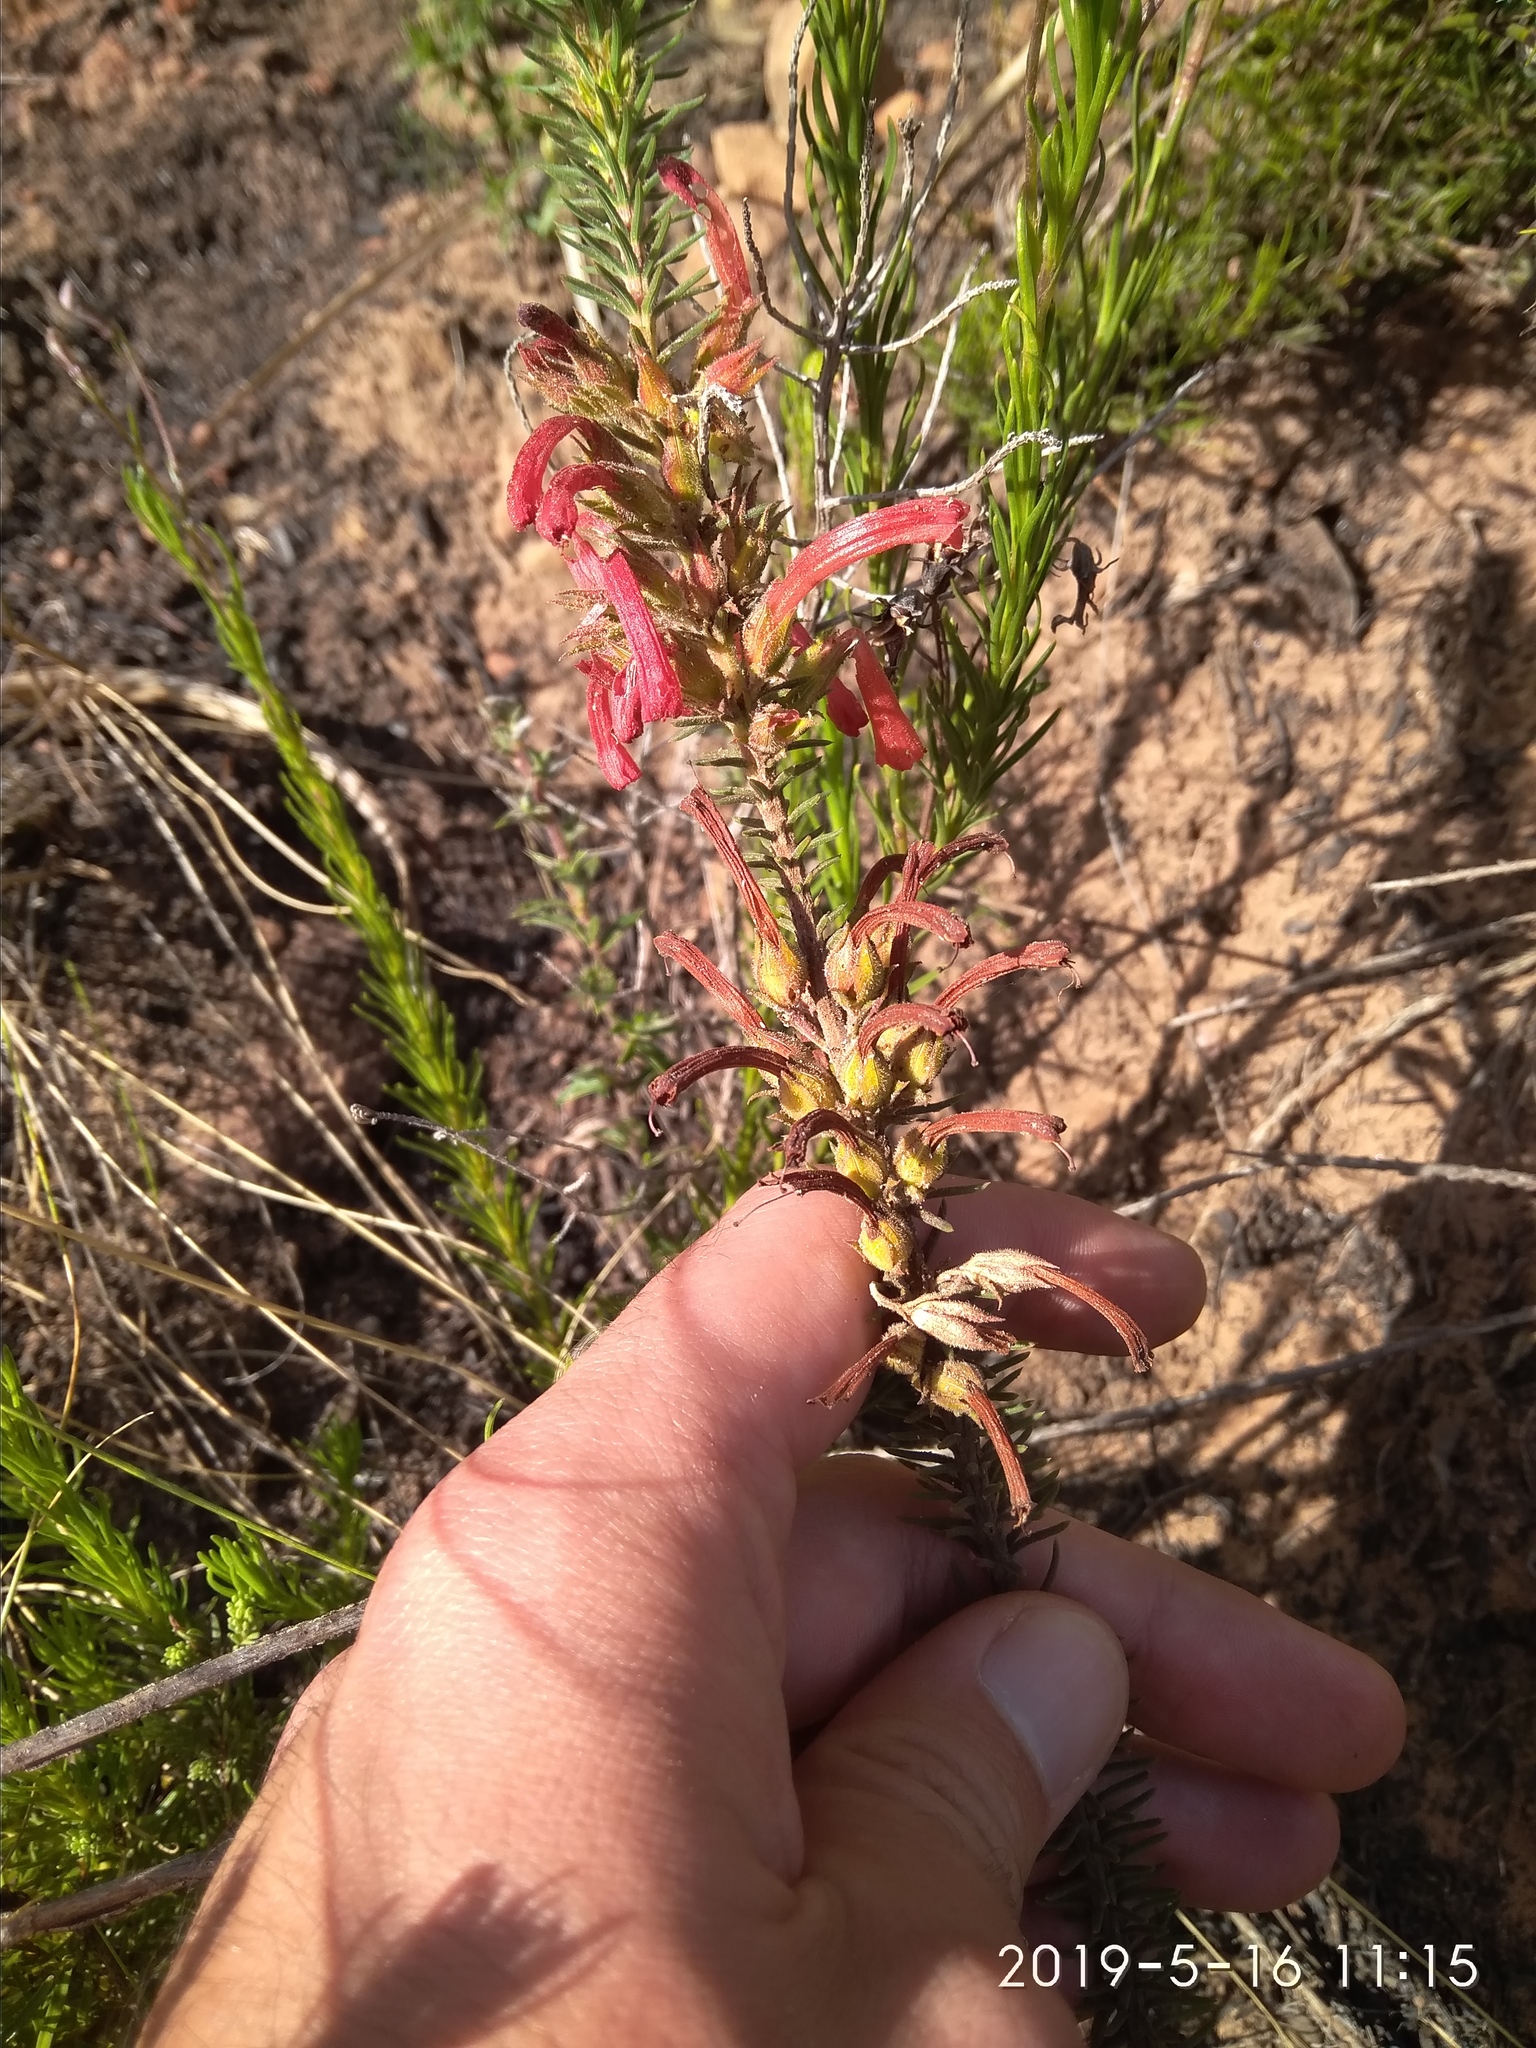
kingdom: Plantae
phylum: Tracheophyta
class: Magnoliopsida
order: Ericales
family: Ericaceae
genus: Erica
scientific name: Erica abietina
